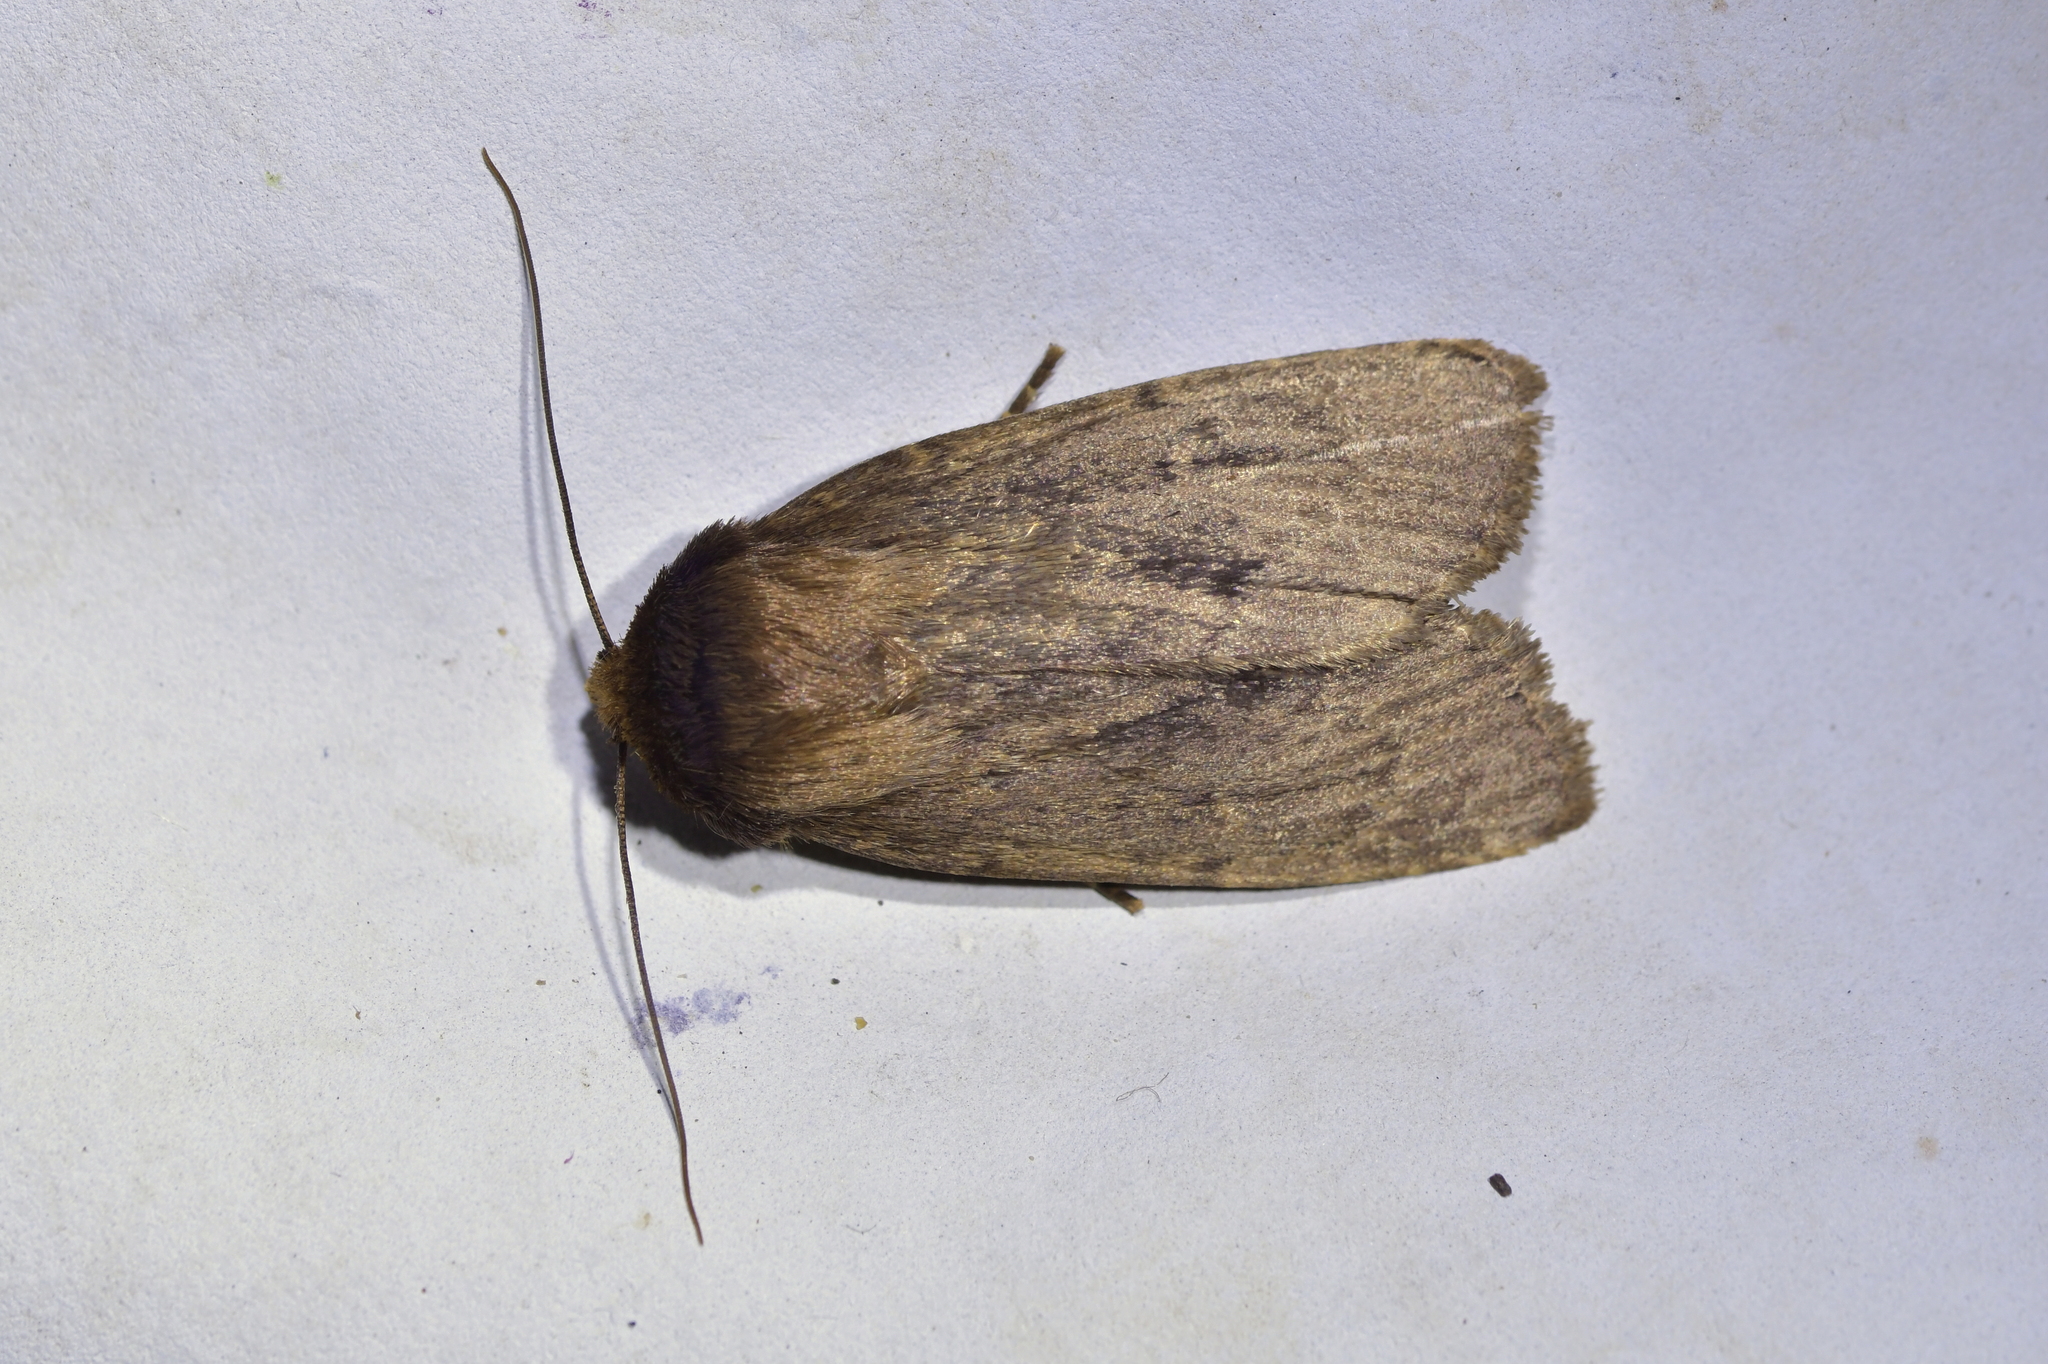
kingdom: Animalia
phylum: Arthropoda
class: Insecta
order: Lepidoptera
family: Noctuidae
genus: Bityla
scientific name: Bityla defigurata
